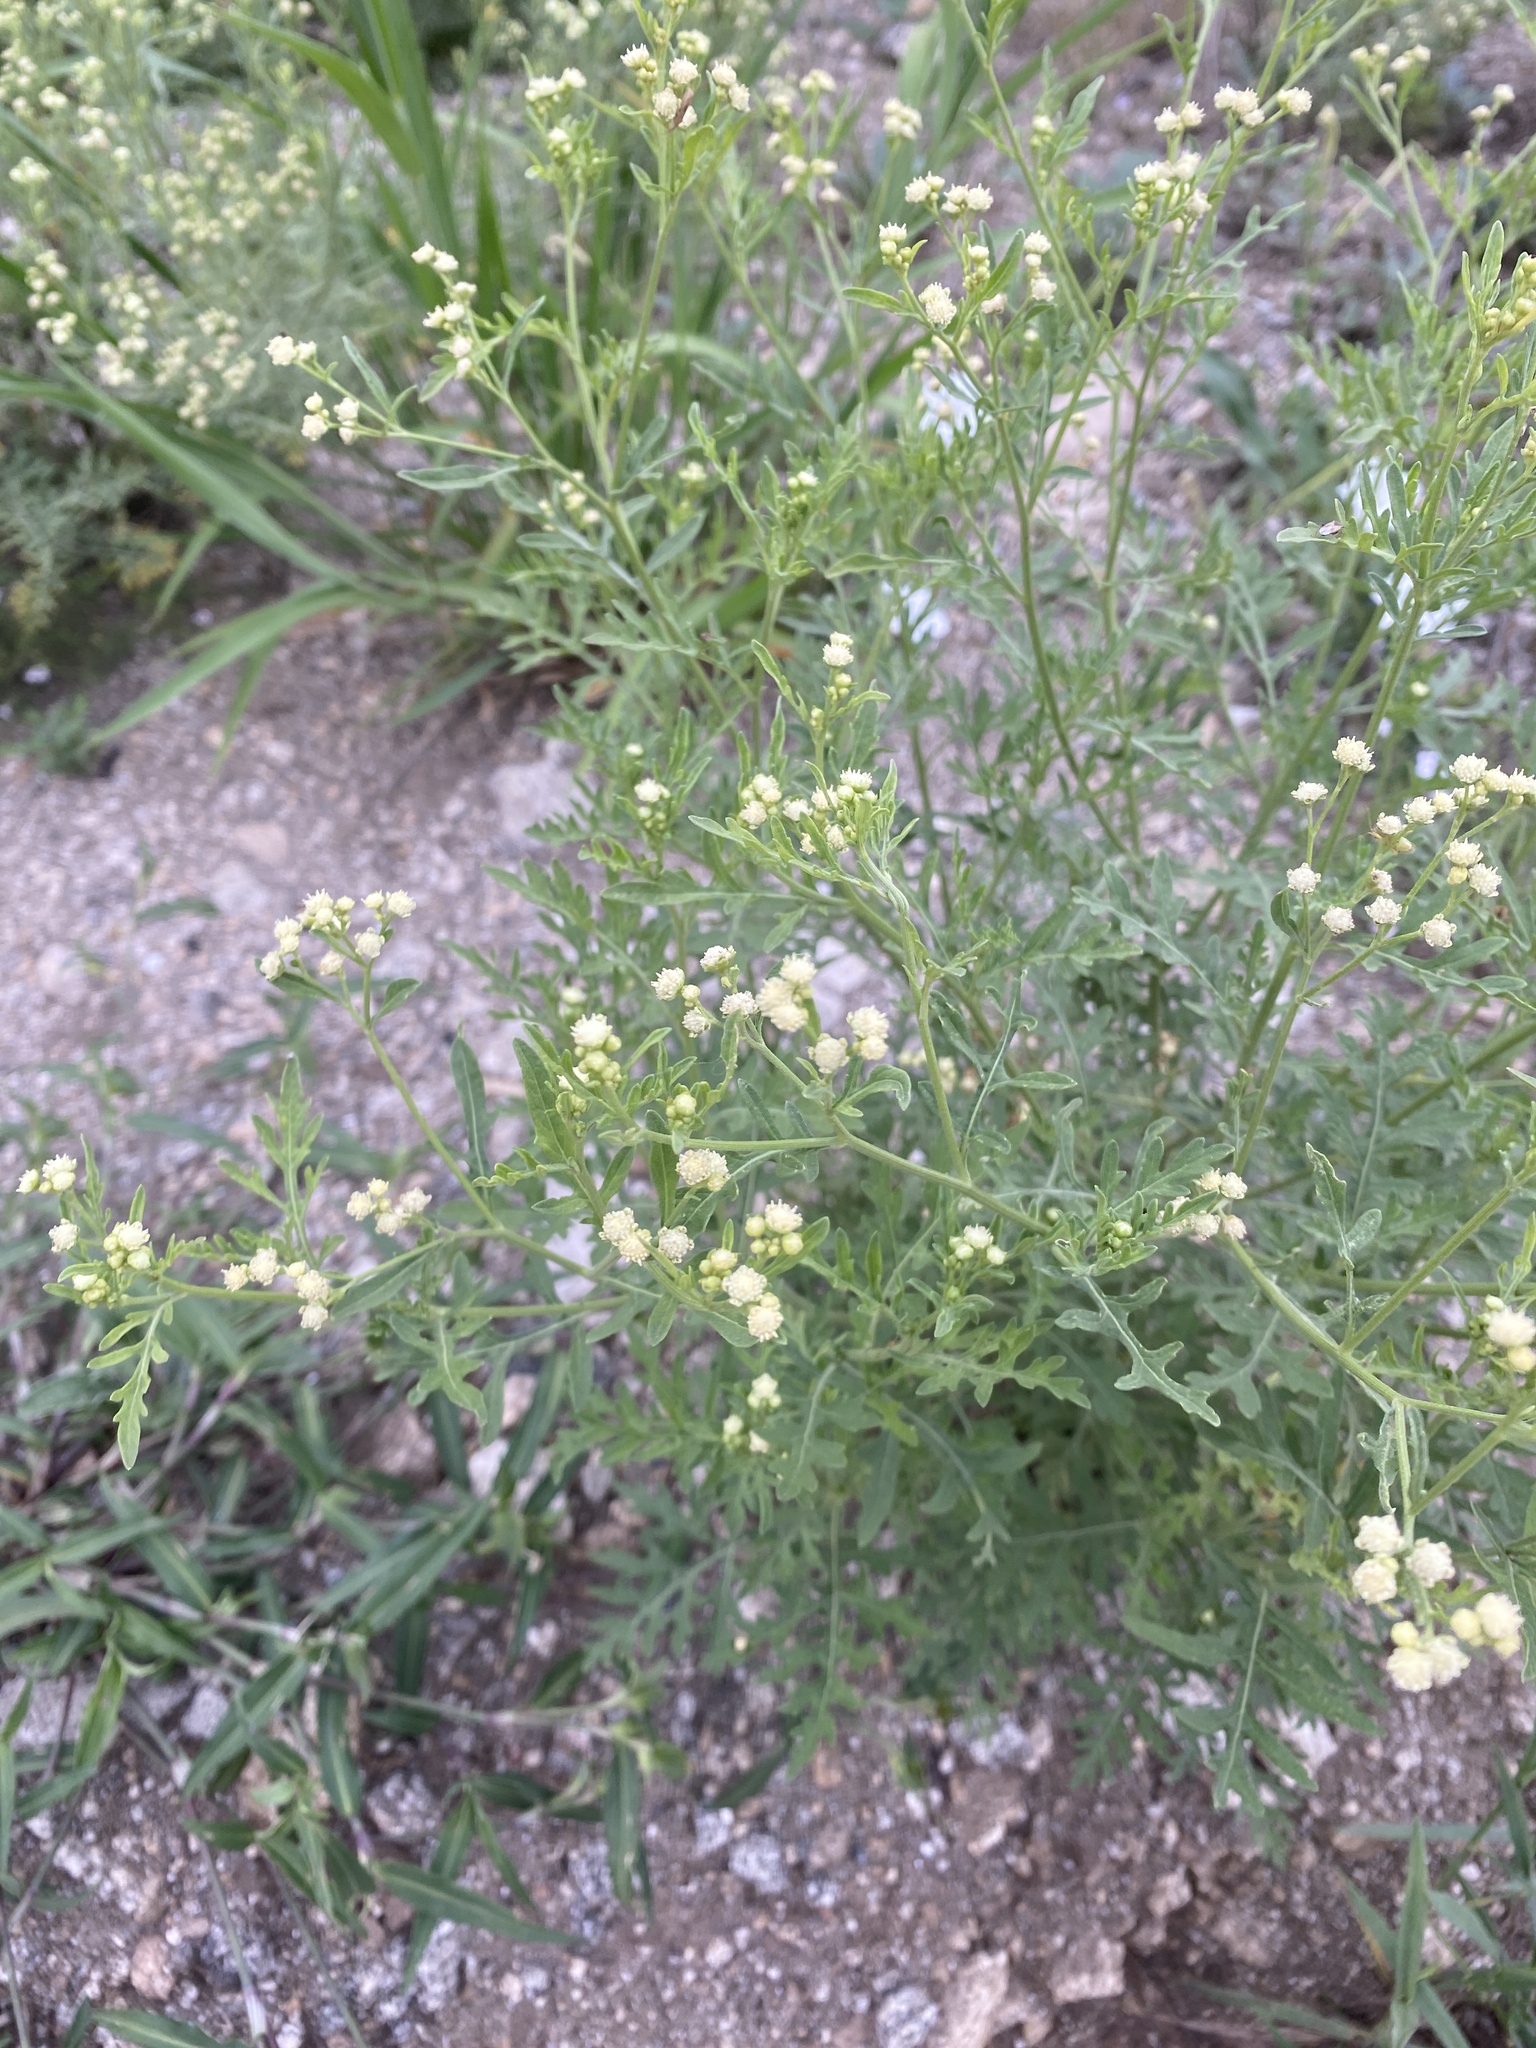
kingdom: Plantae
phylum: Tracheophyta
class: Magnoliopsida
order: Asterales
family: Asteraceae
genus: Parthenium
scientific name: Parthenium hysterophorus
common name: Santa maria feverfew
